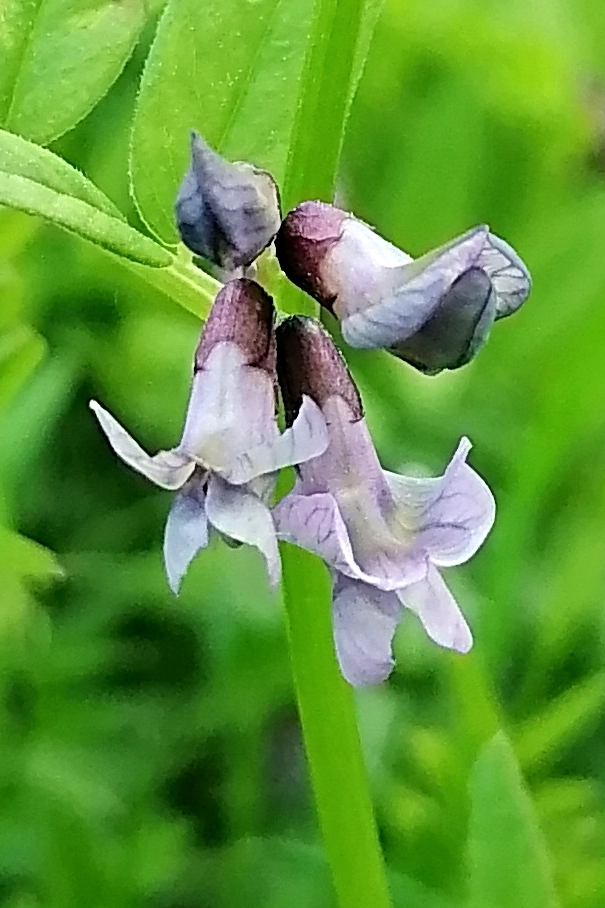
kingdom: Plantae
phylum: Tracheophyta
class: Magnoliopsida
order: Fabales
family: Fabaceae
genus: Vicia
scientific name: Vicia sepium
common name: Bush vetch
